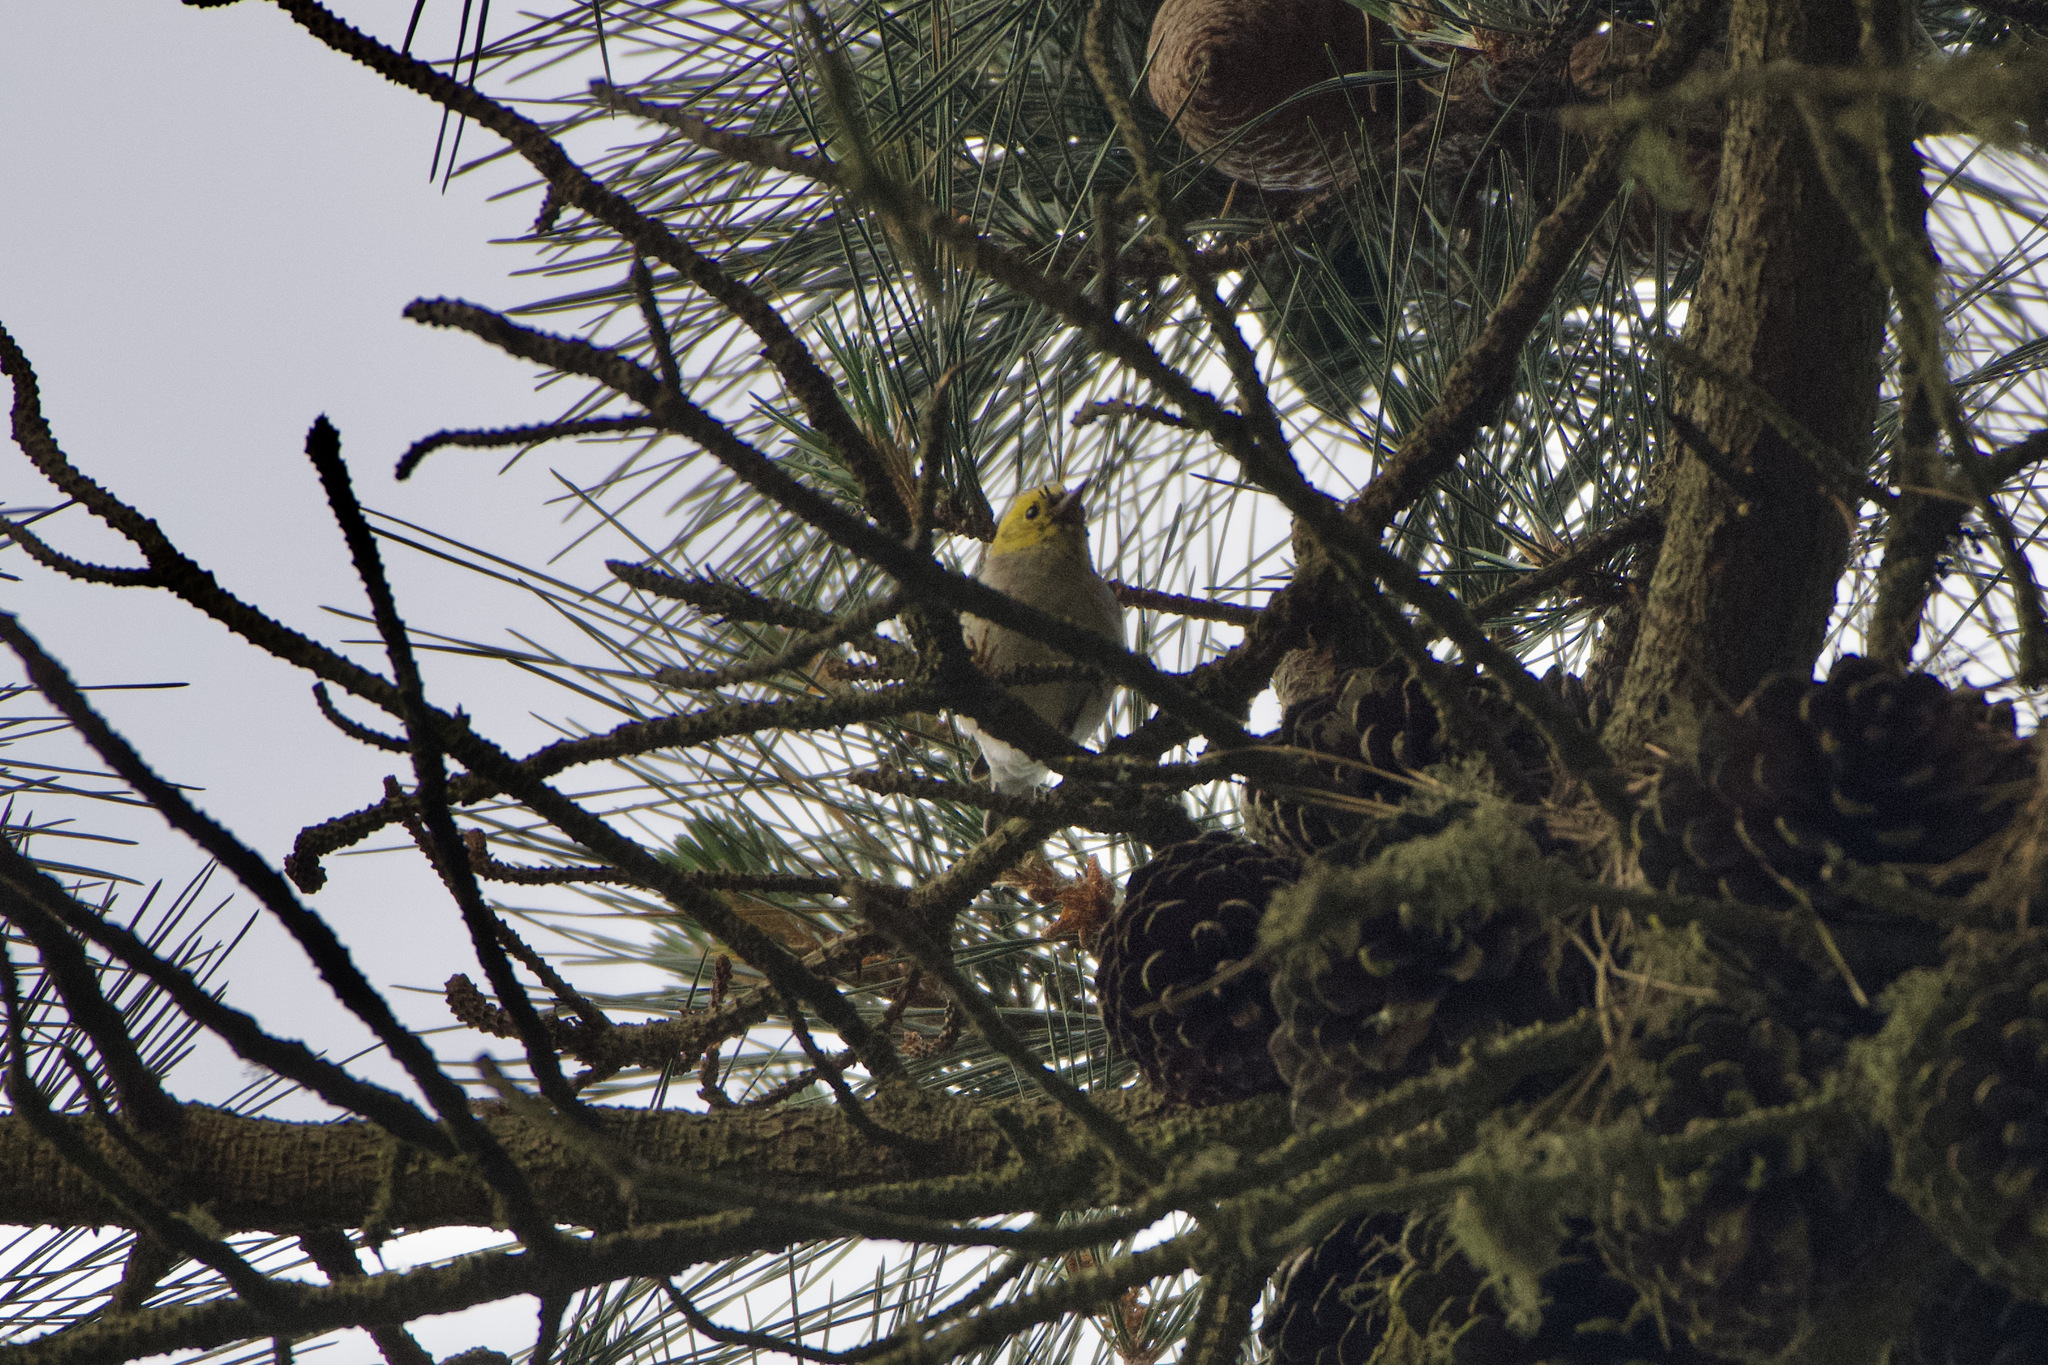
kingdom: Animalia
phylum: Chordata
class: Aves
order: Passeriformes
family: Parulidae
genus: Setophaga
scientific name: Setophaga occidentalis
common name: Hermit warbler
